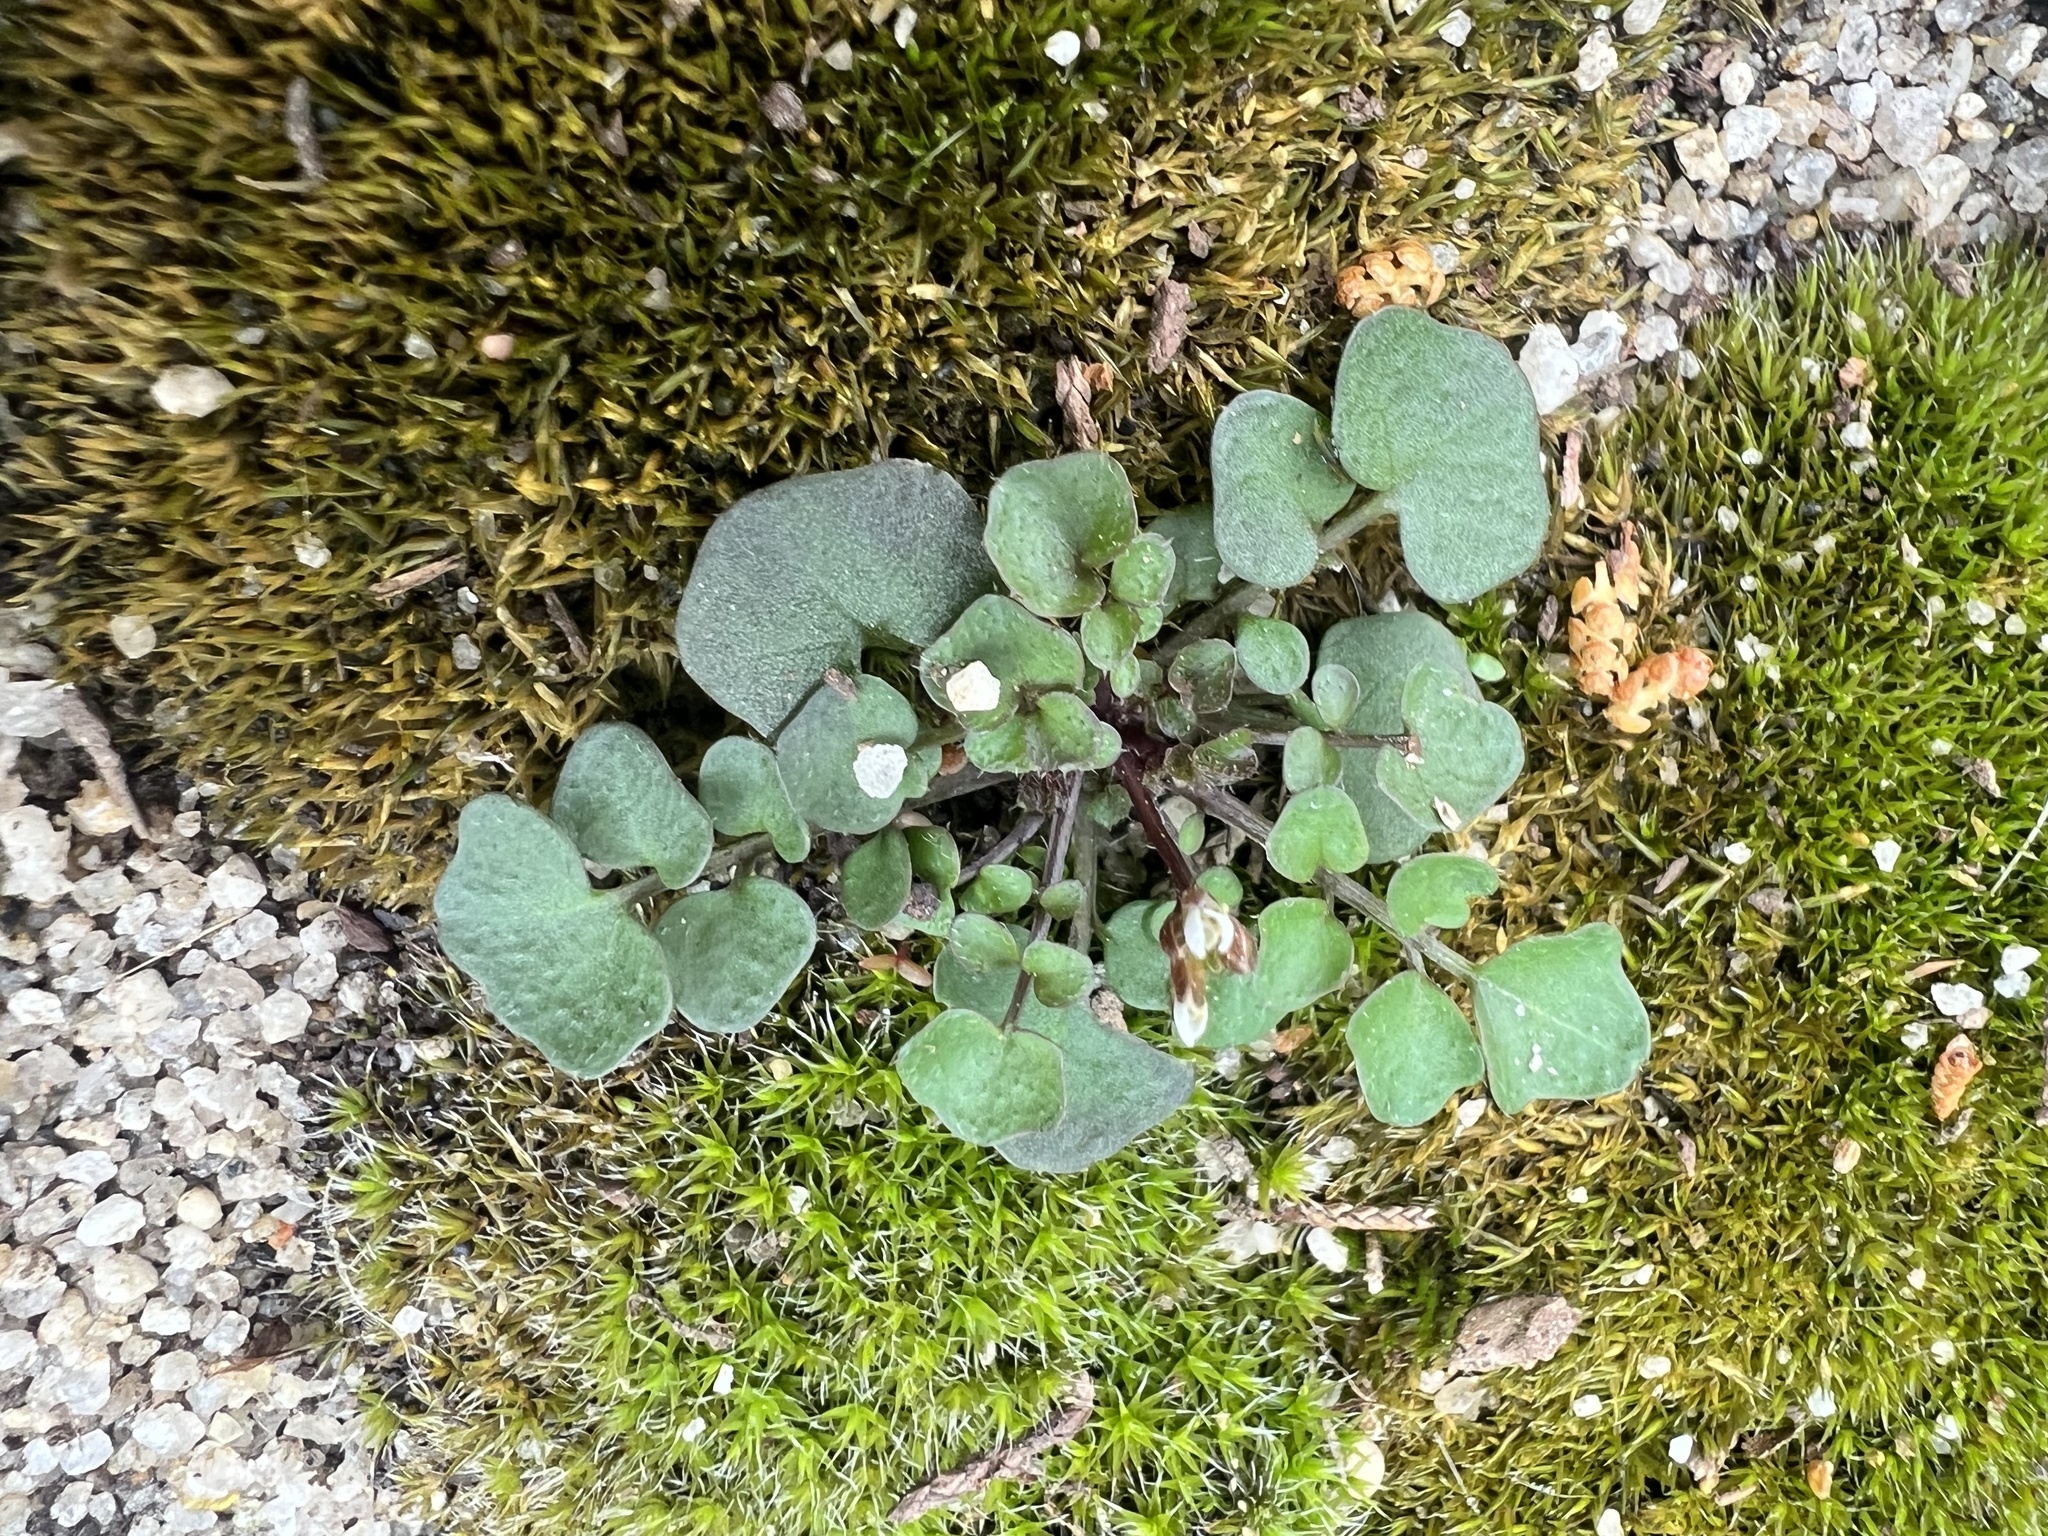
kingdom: Plantae
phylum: Tracheophyta
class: Magnoliopsida
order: Brassicales
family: Brassicaceae
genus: Cardamine
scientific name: Cardamine hirsuta
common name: Hairy bittercress
